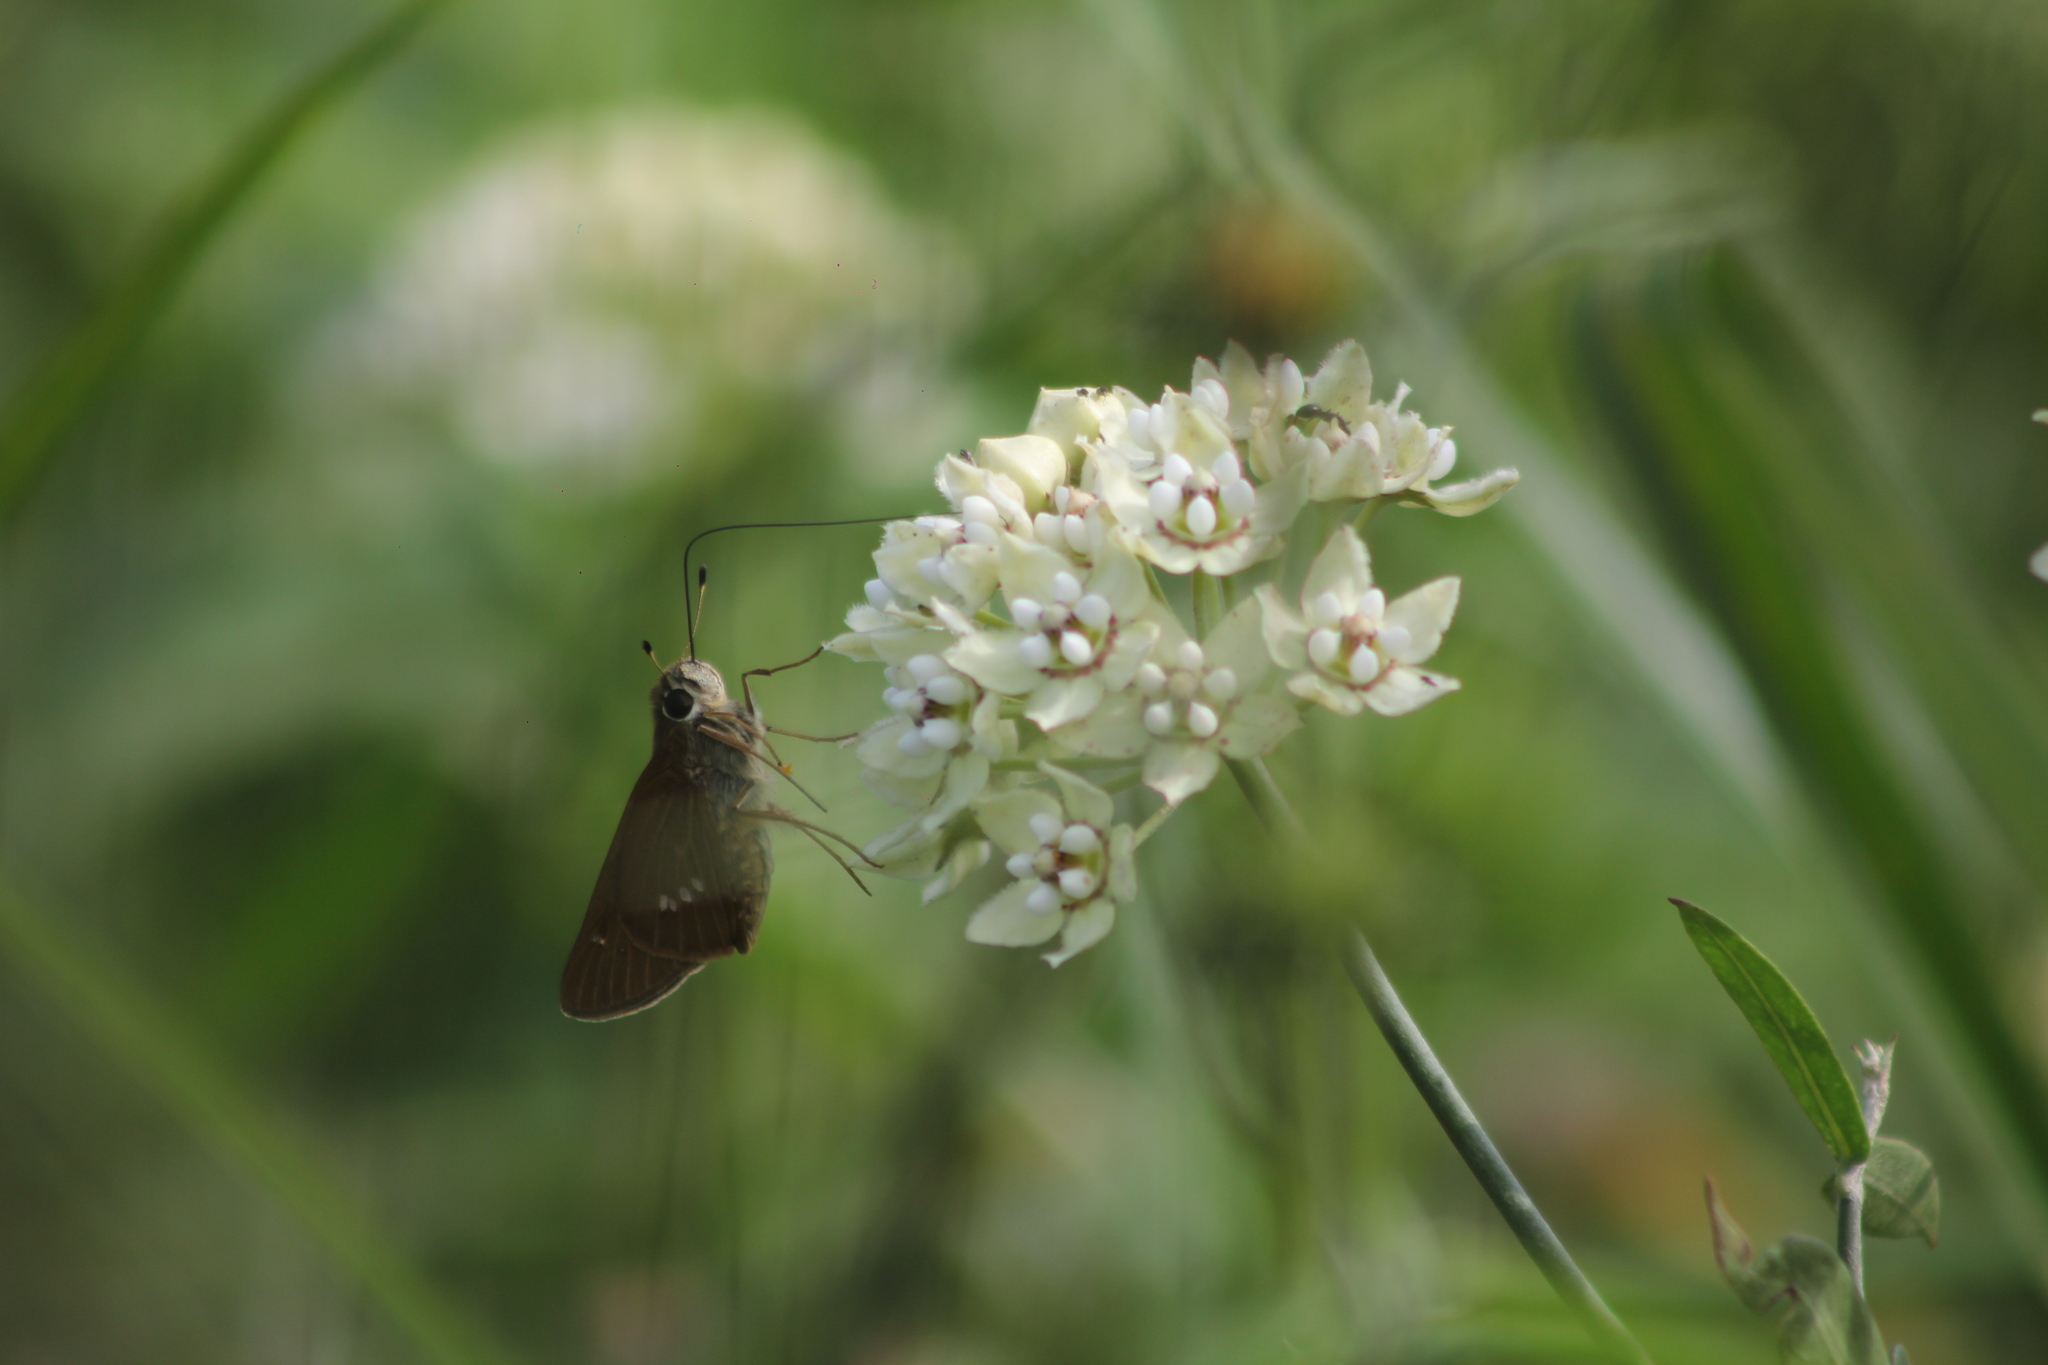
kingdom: Animalia
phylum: Arthropoda
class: Insecta
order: Lepidoptera
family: Hesperiidae
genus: Calpodes
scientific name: Calpodes ethlius
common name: Brazilian skipper
